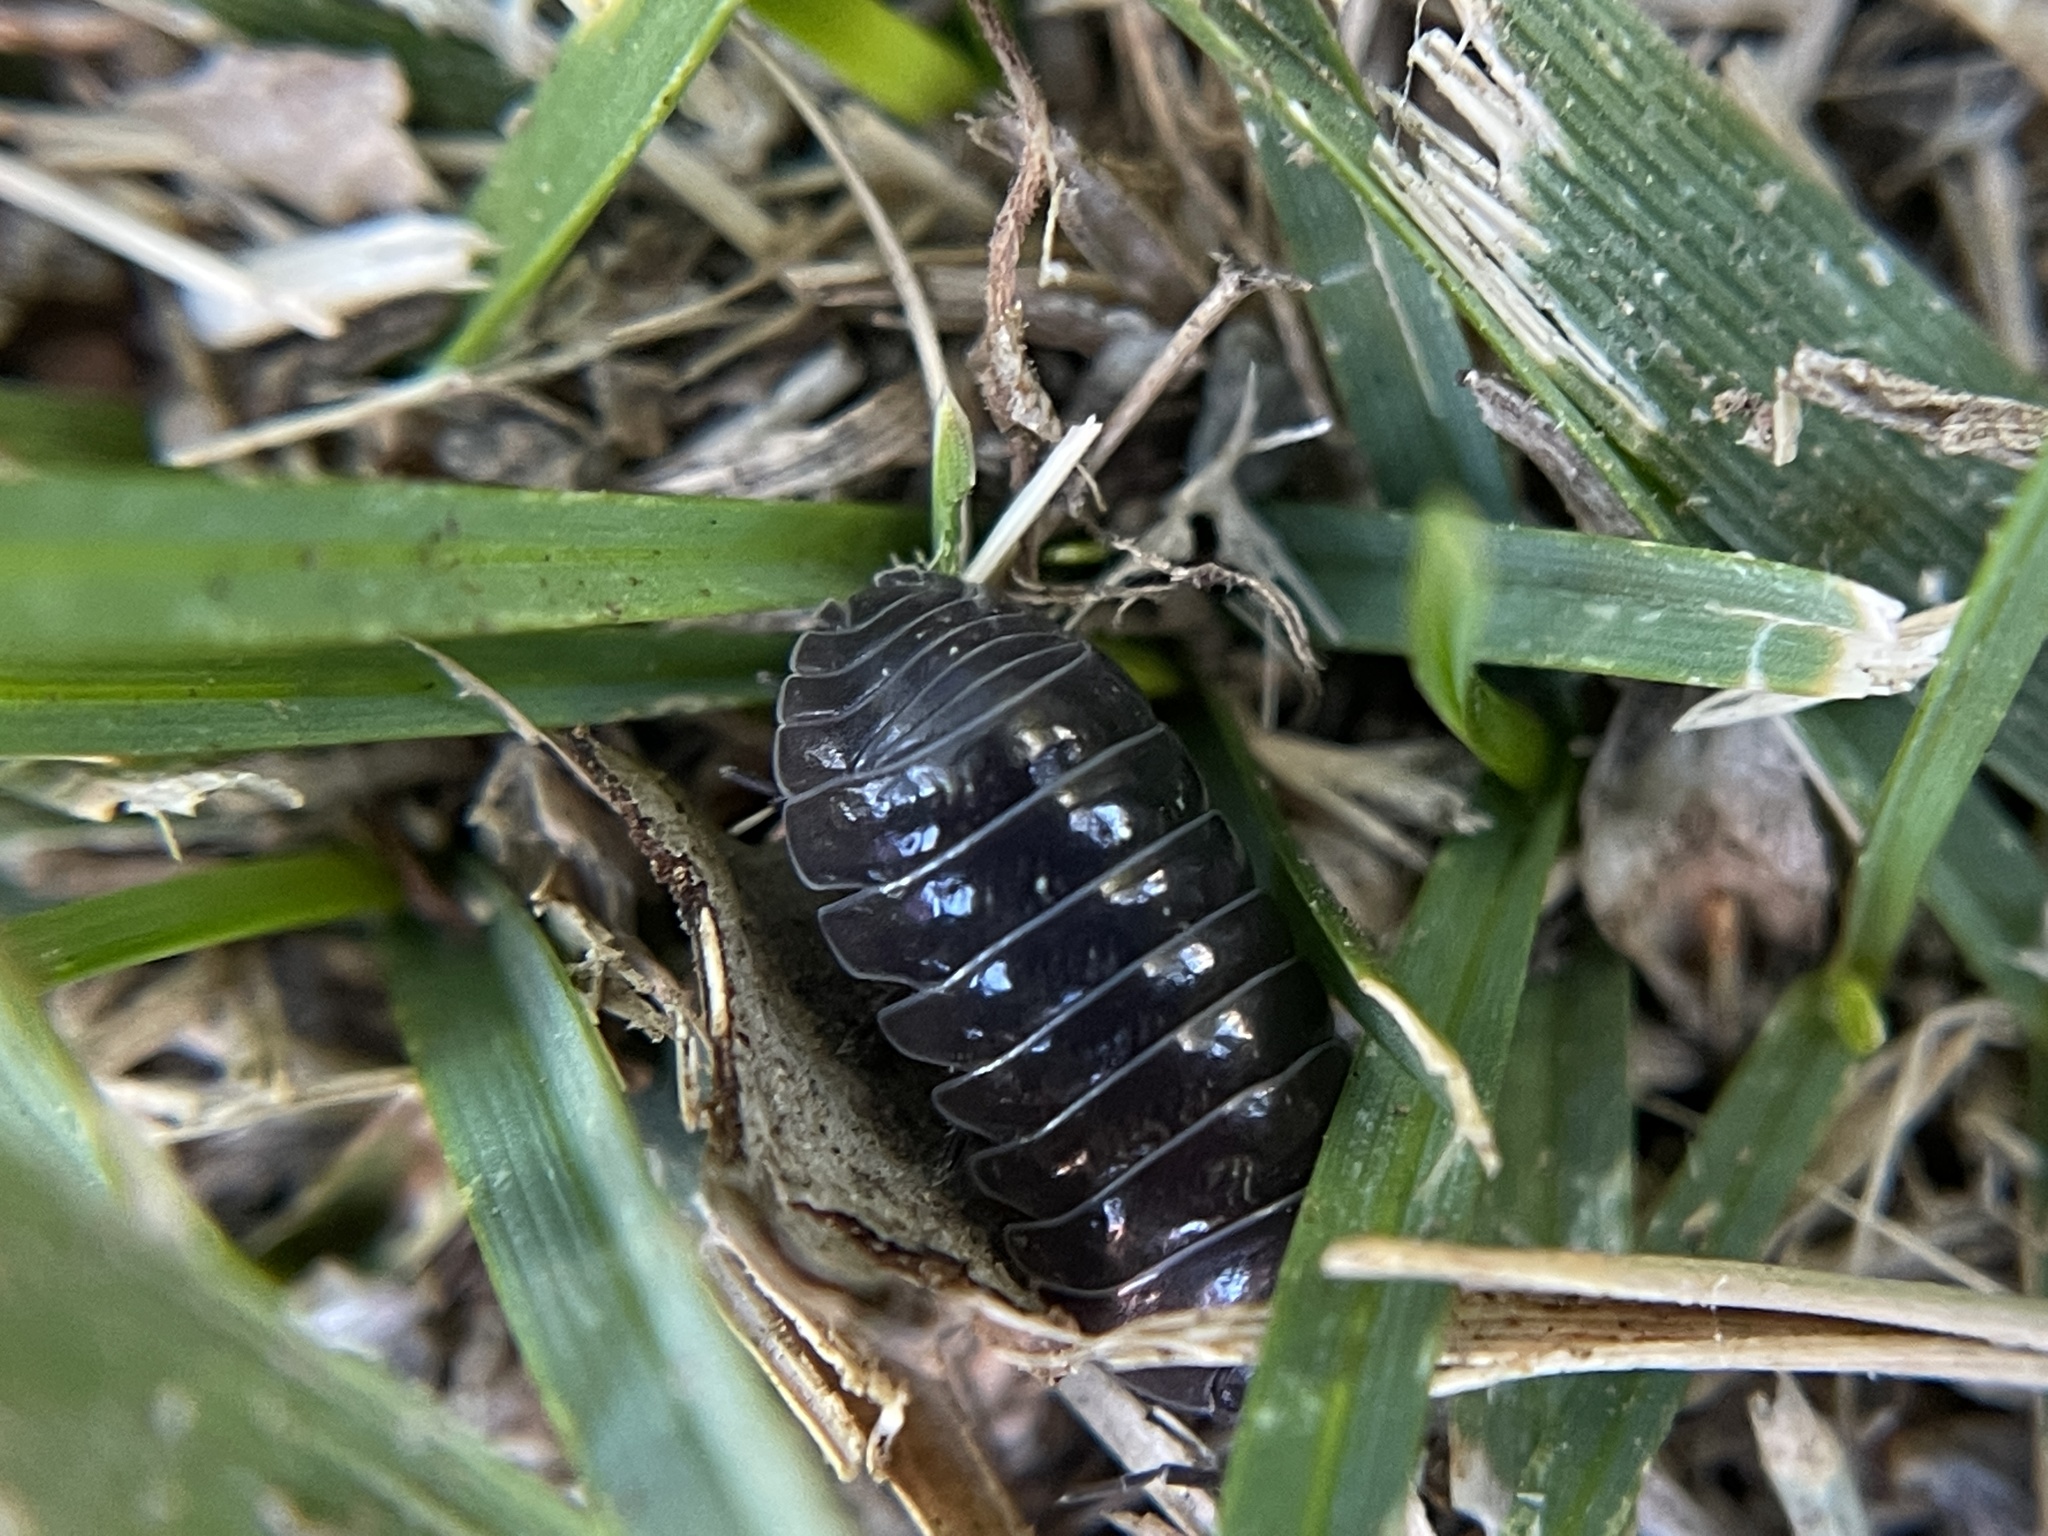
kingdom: Animalia
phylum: Arthropoda
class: Malacostraca
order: Isopoda
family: Armadillidiidae
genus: Armadillidium
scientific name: Armadillidium vulgare
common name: Common pill woodlouse
